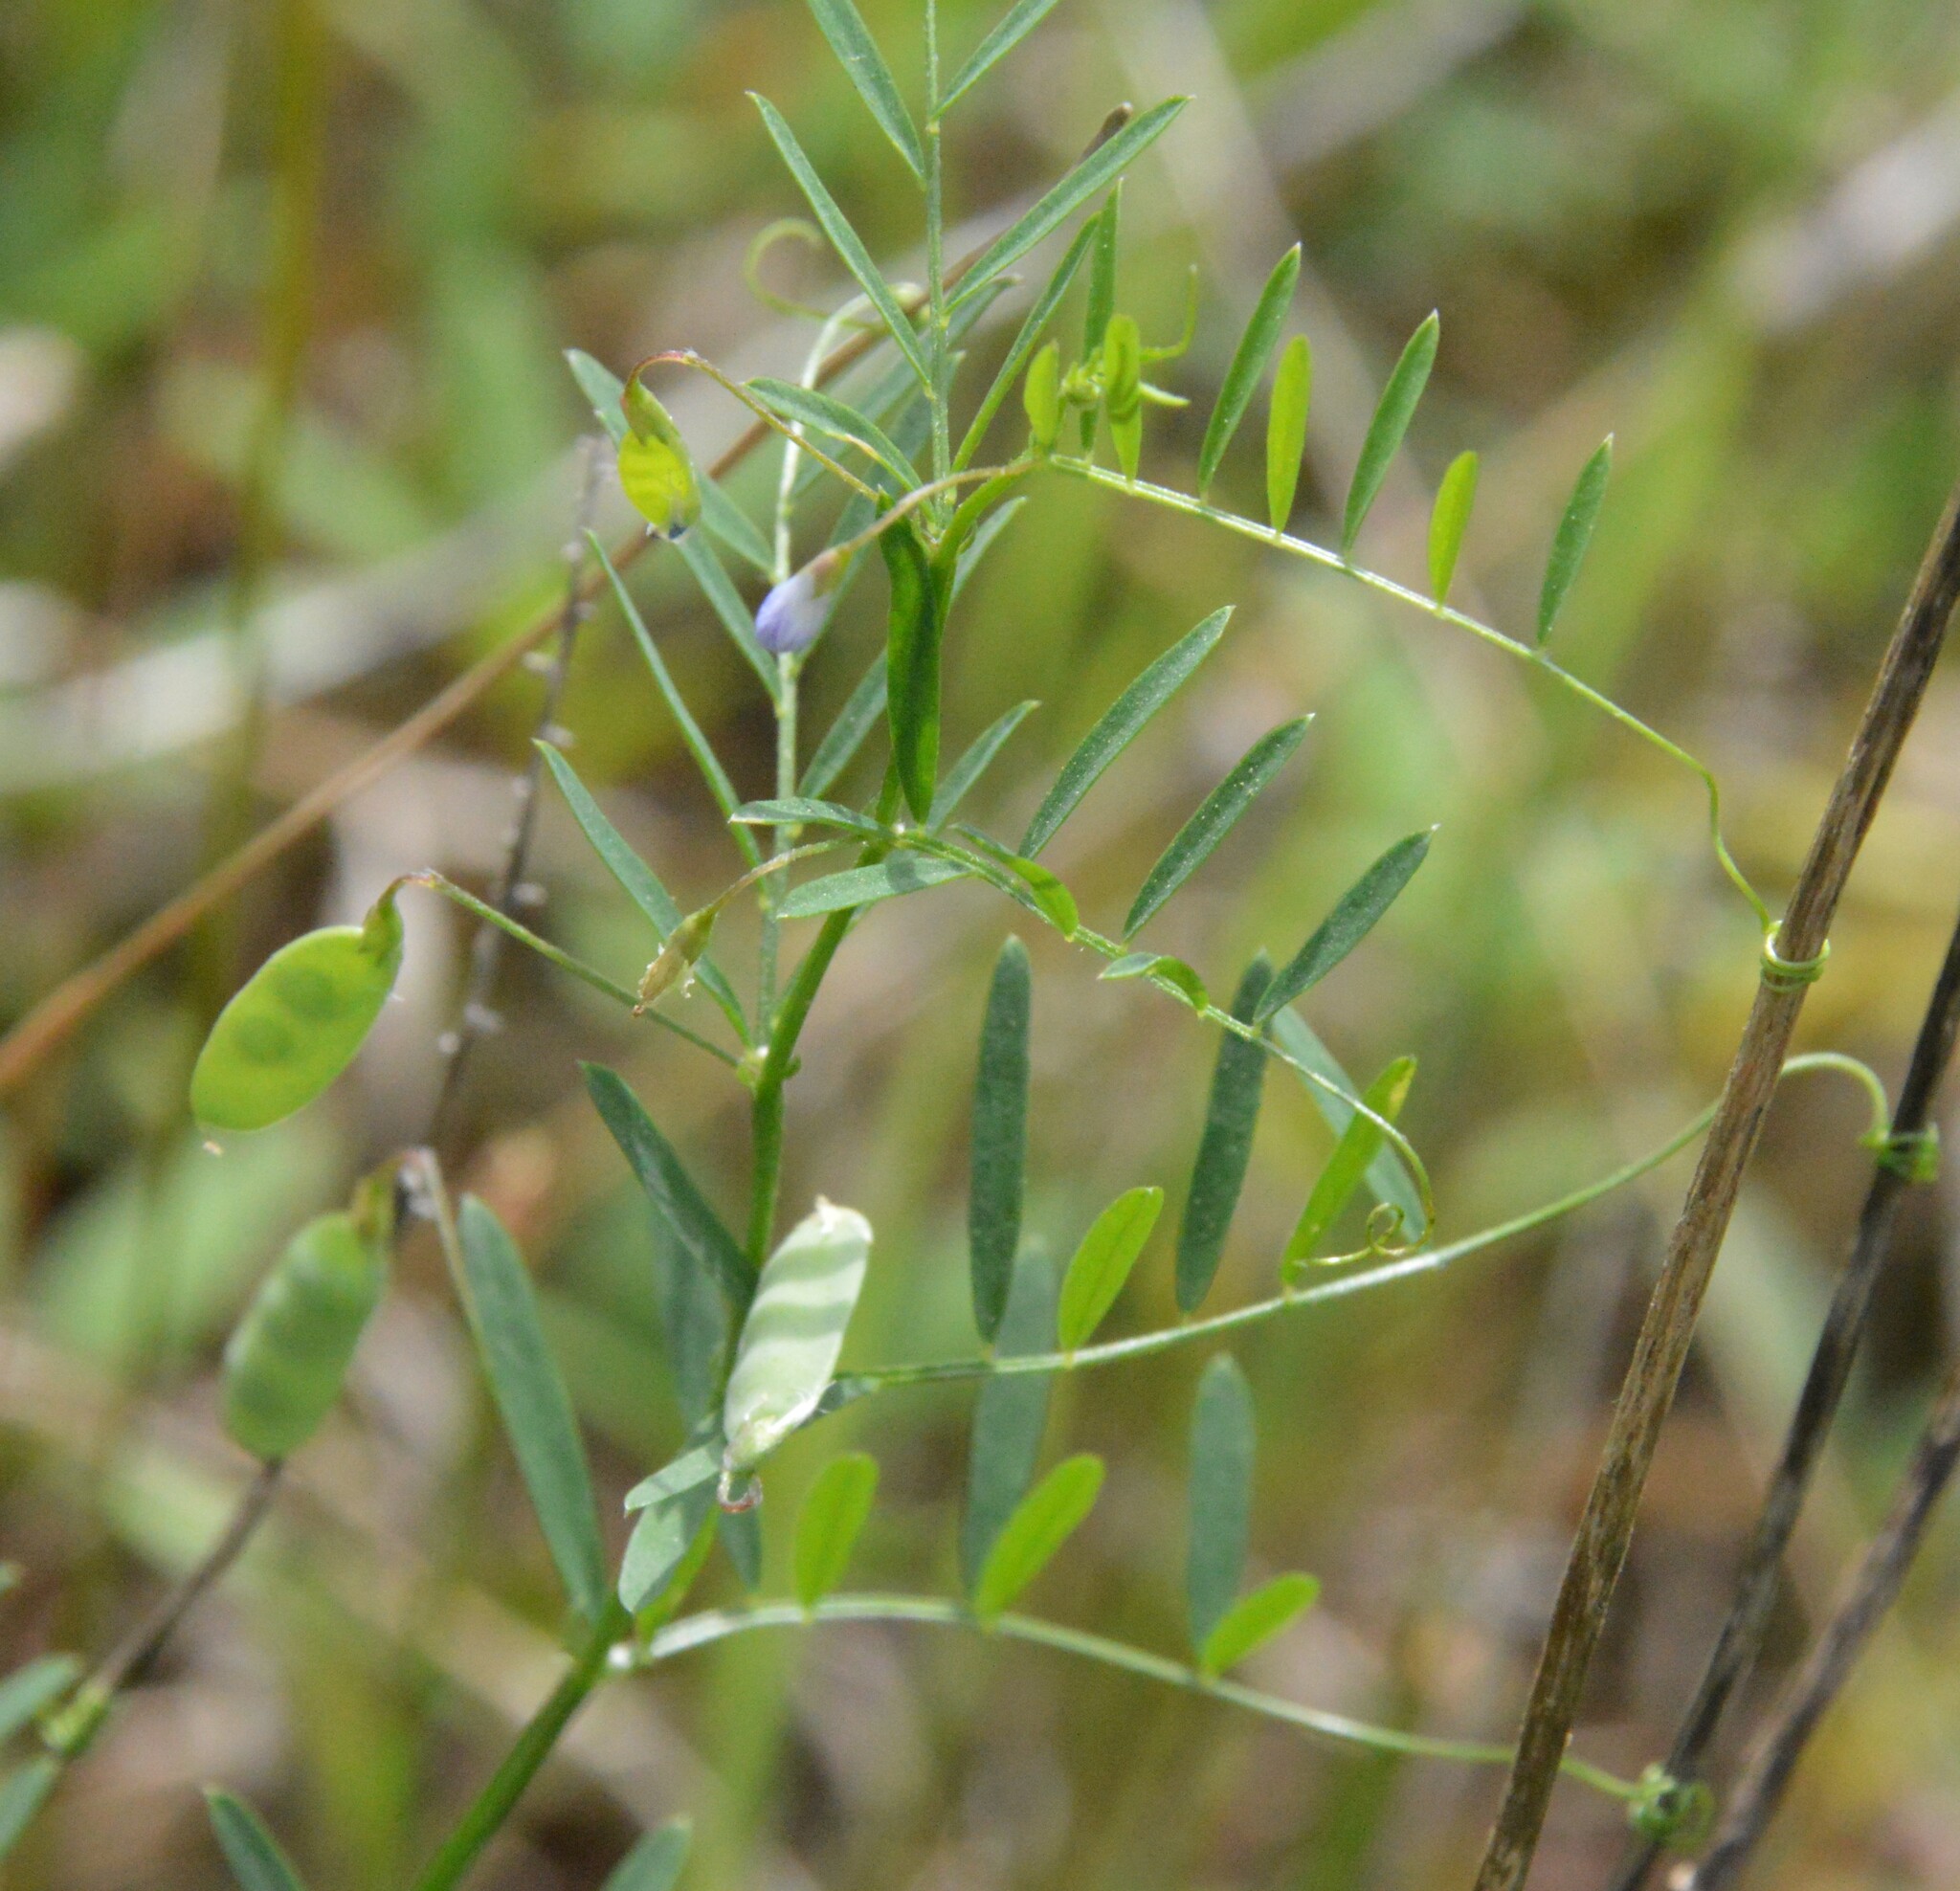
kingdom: Plantae
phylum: Tracheophyta
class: Magnoliopsida
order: Fabales
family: Fabaceae
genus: Vicia
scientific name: Vicia tetrasperma
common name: Smooth tare
